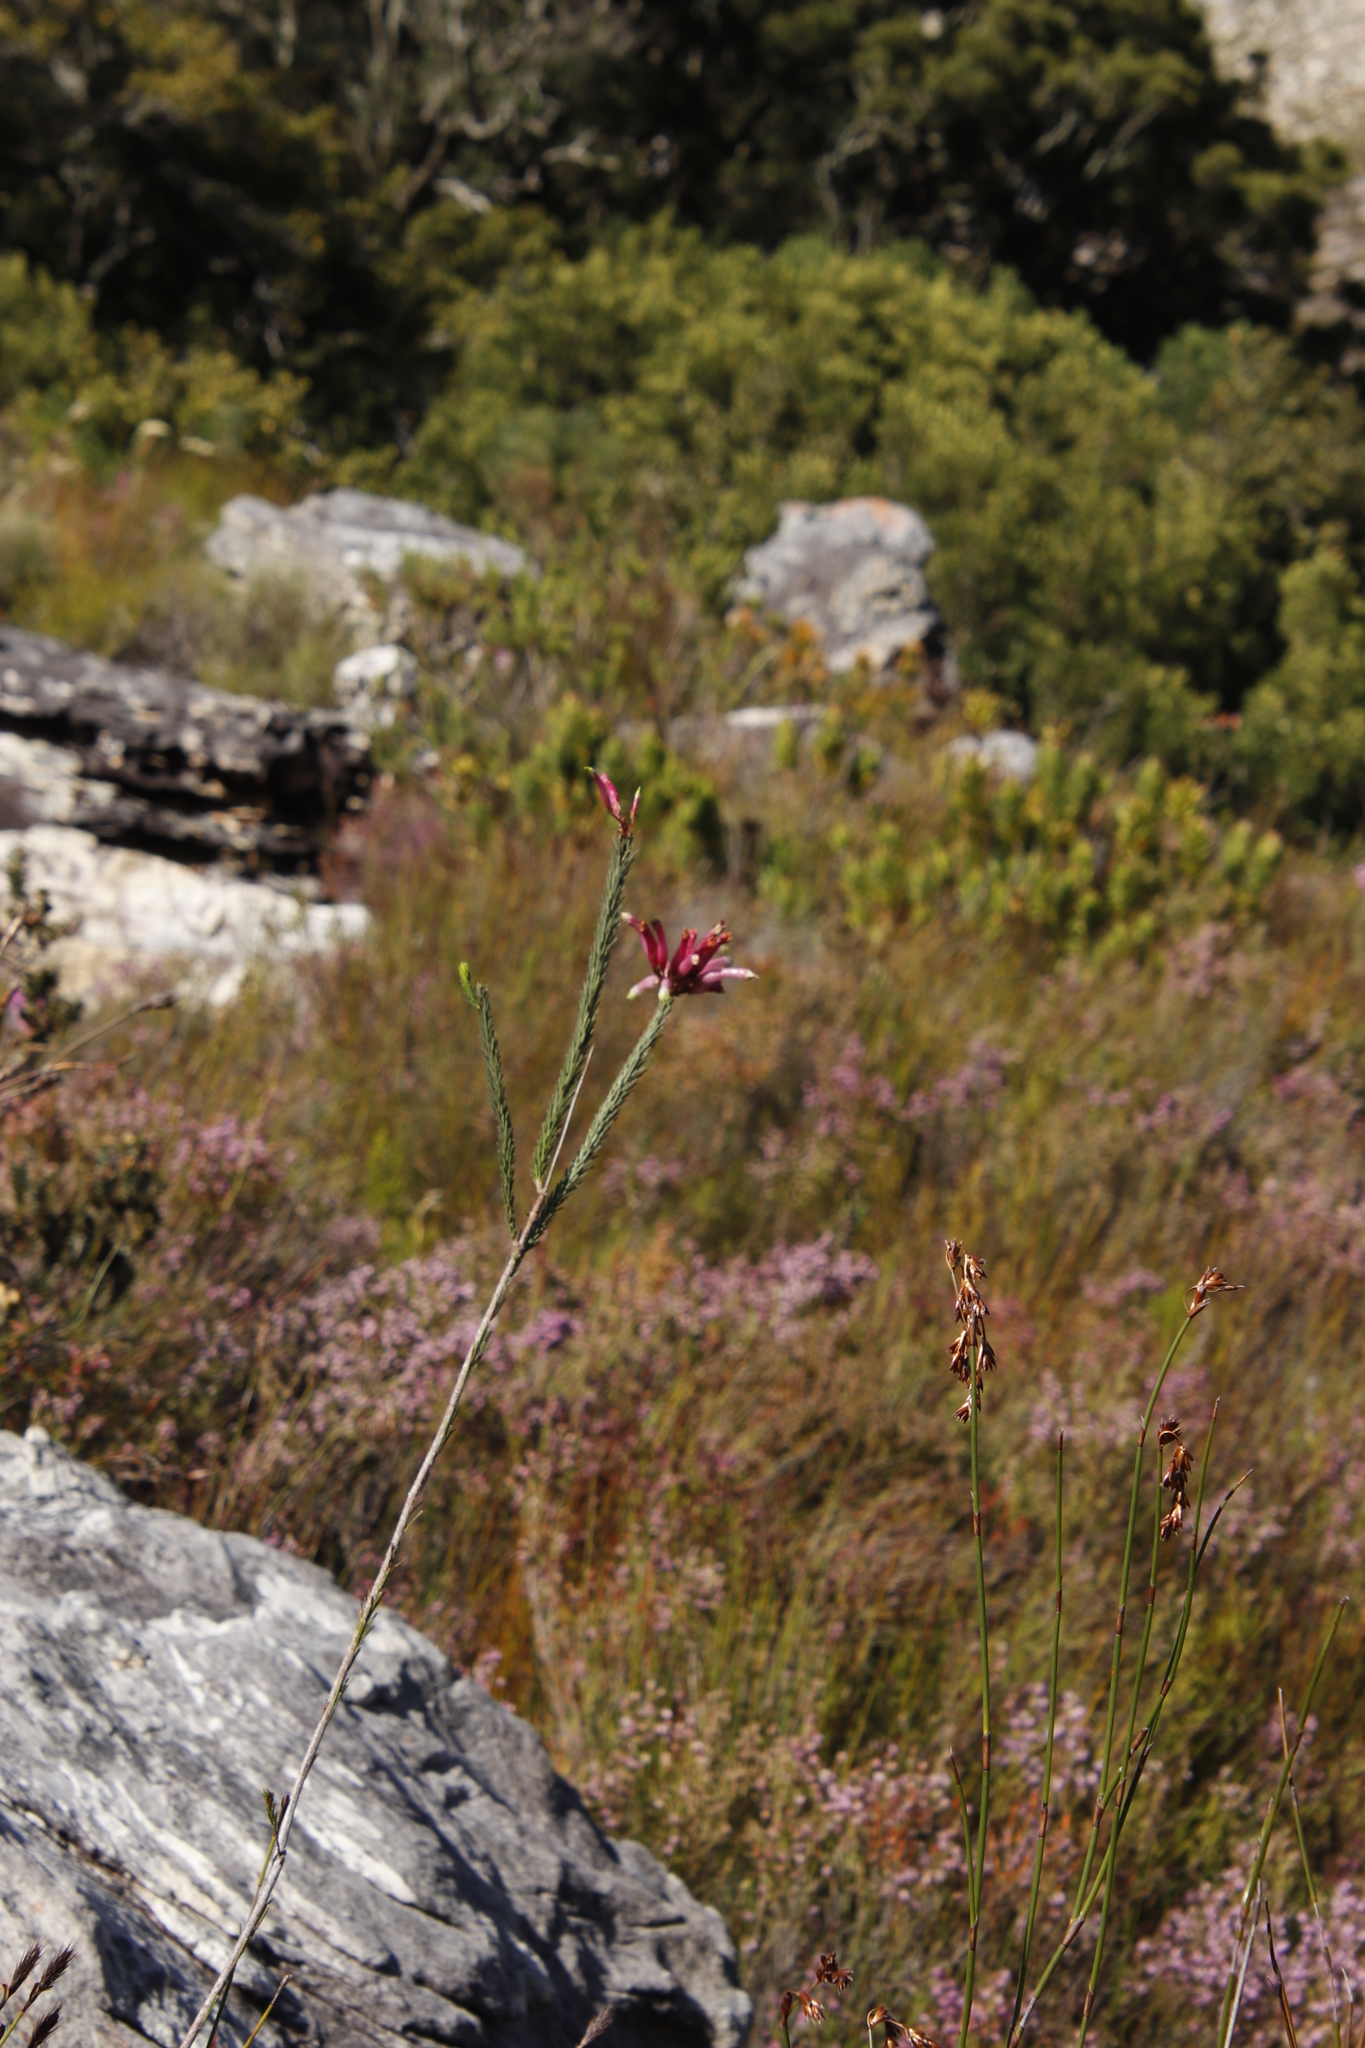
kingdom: Plantae
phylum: Tracheophyta
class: Magnoliopsida
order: Ericales
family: Ericaceae
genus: Erica
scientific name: Erica fascicularis
